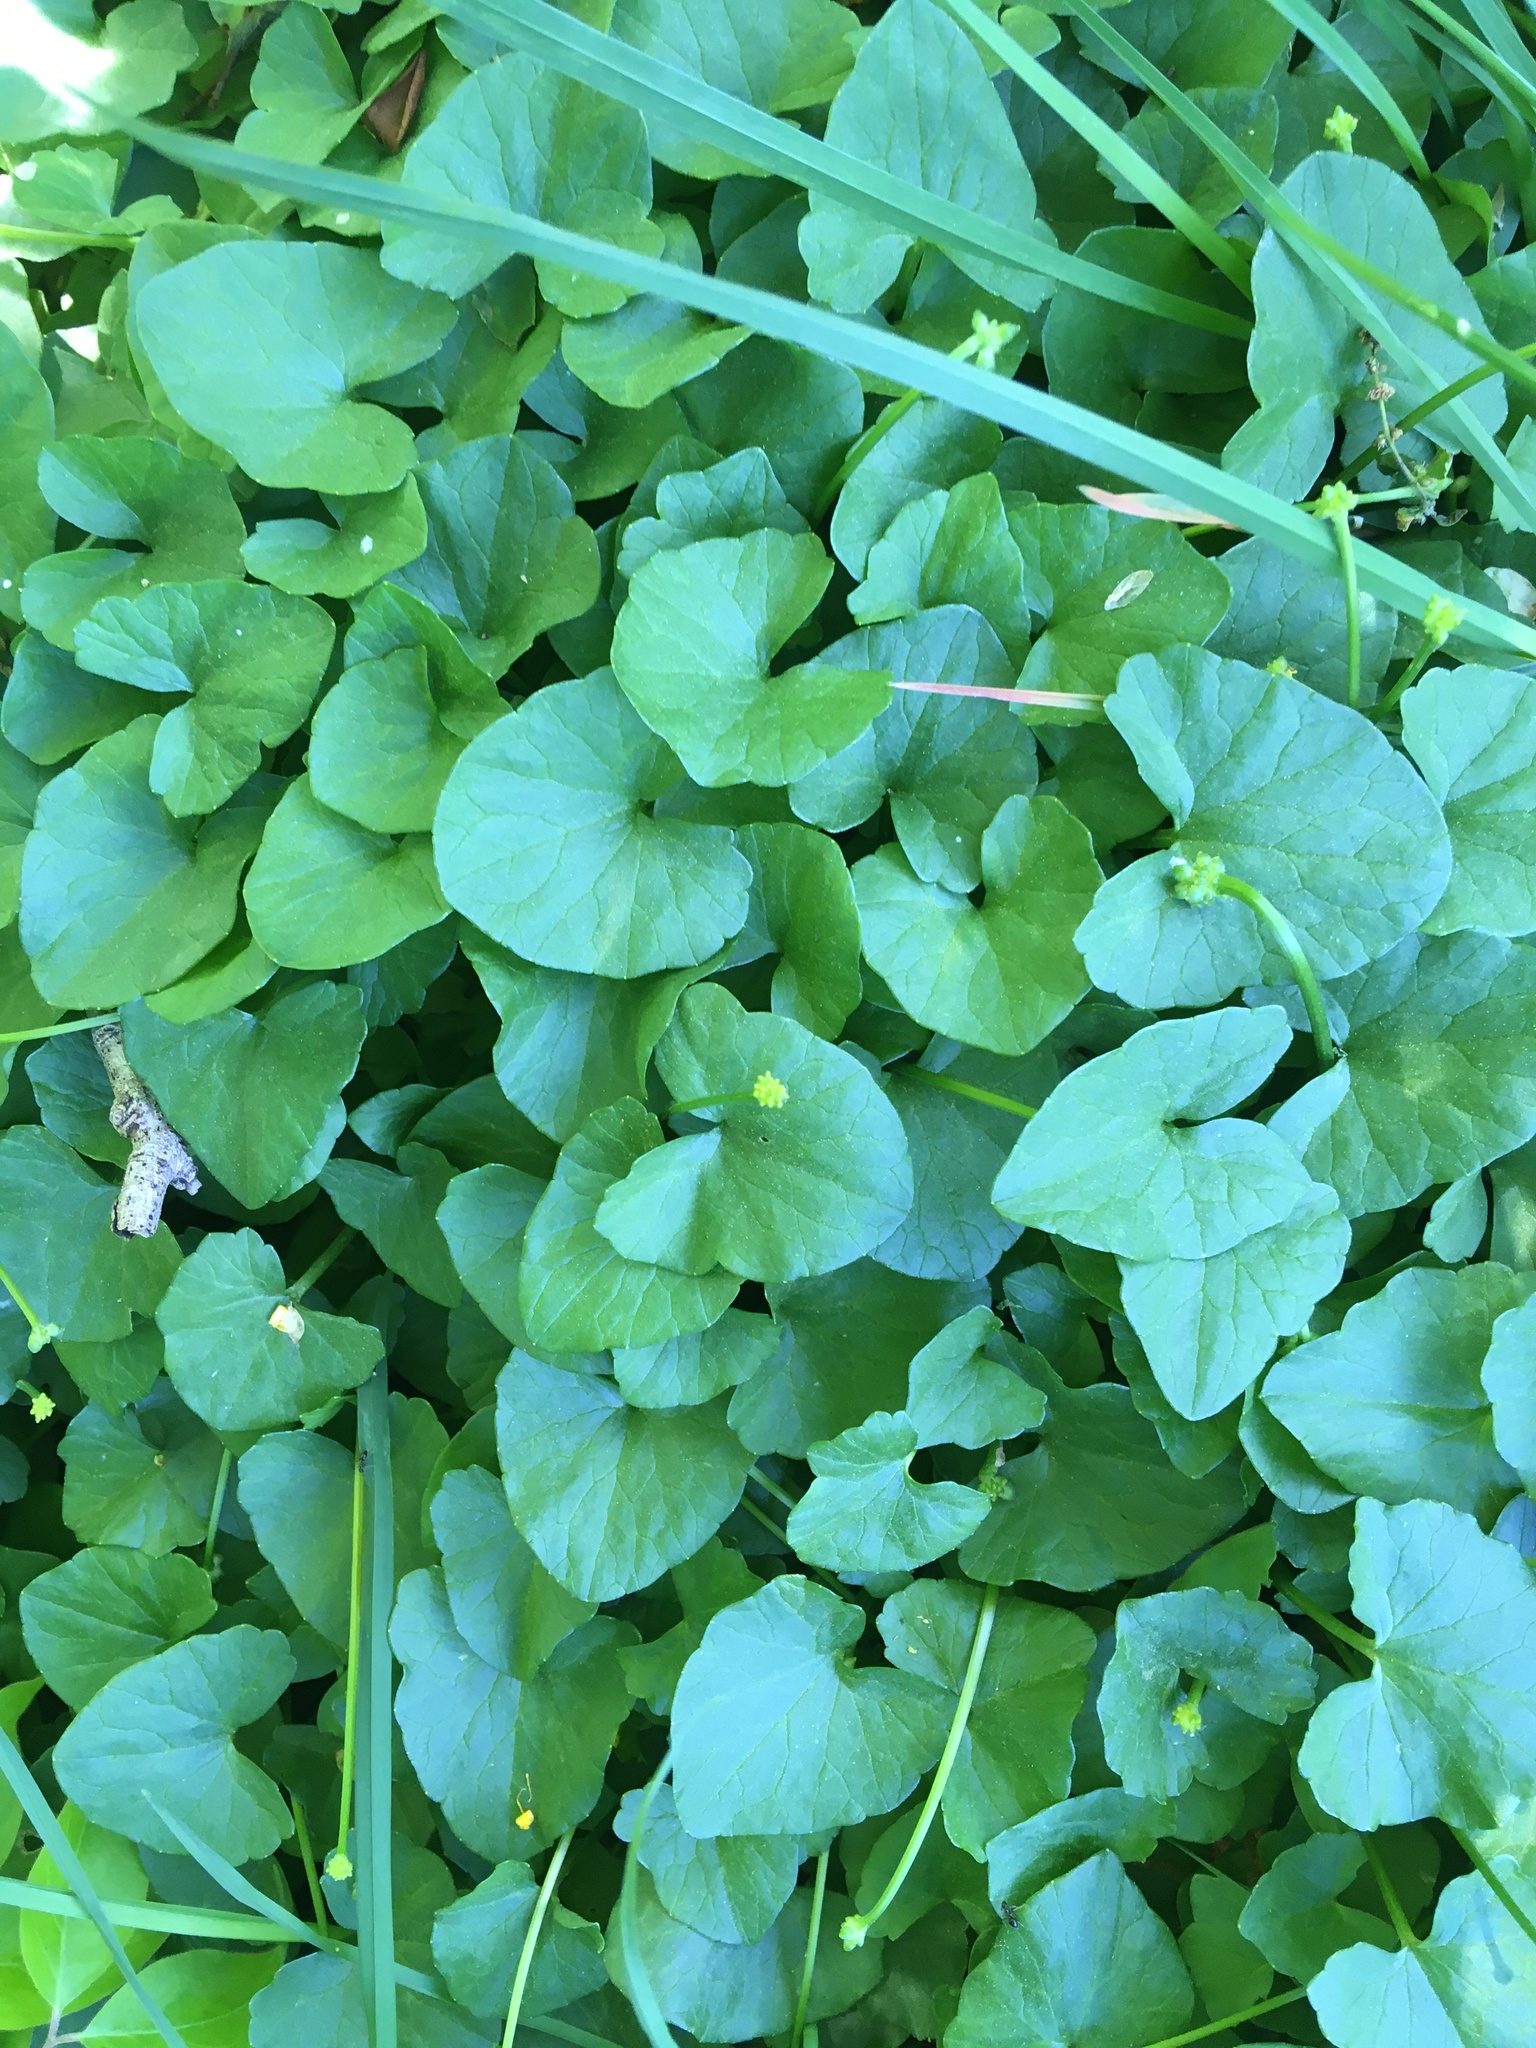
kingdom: Plantae
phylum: Tracheophyta
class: Magnoliopsida
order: Ranunculales
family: Ranunculaceae
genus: Ficaria
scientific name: Ficaria verna
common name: Lesser celandine
